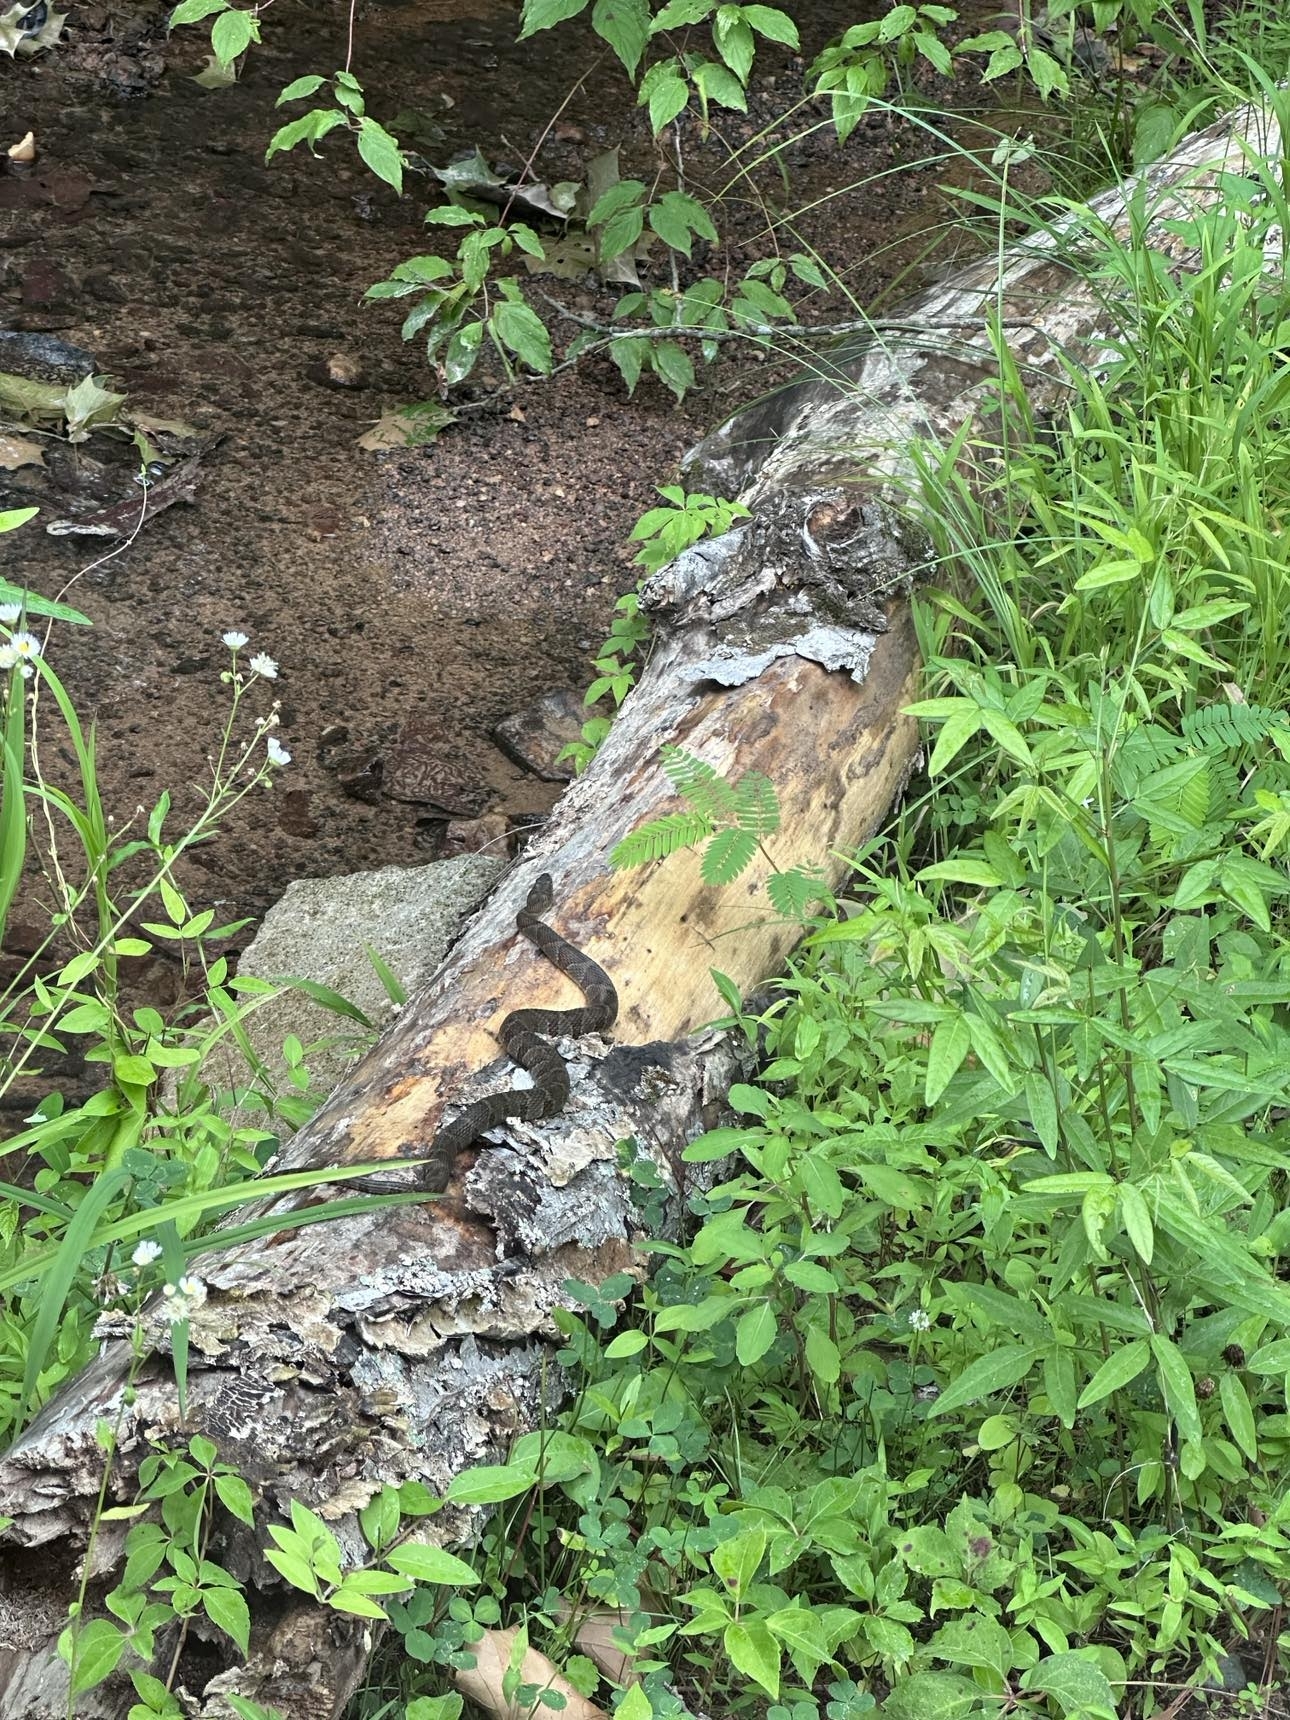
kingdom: Animalia
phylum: Chordata
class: Squamata
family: Colubridae
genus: Nerodia
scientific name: Nerodia sipedon
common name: Northern water snake
